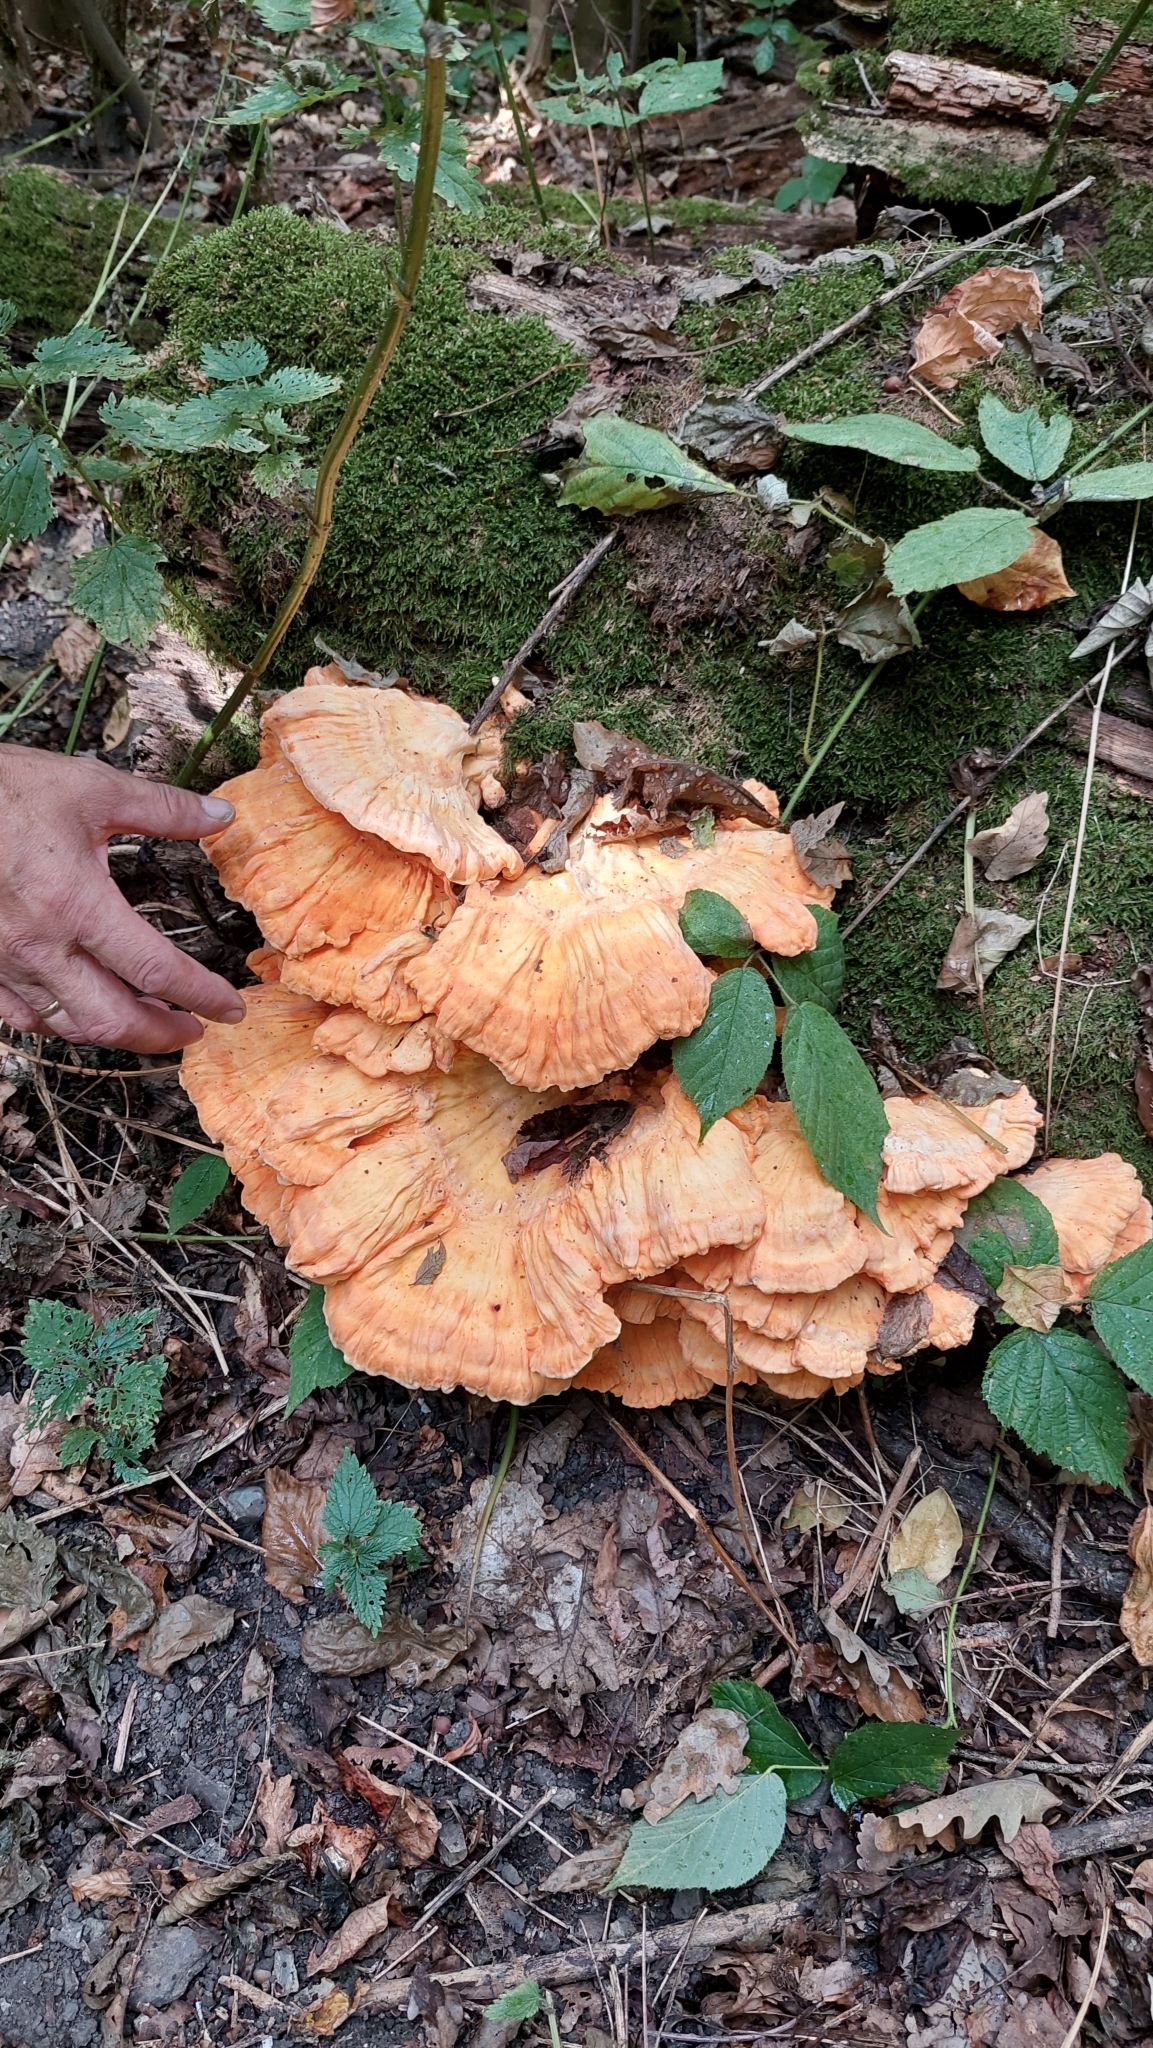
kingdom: Fungi
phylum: Basidiomycota
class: Agaricomycetes
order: Polyporales
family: Laetiporaceae
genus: Laetiporus
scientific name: Laetiporus sulphureus
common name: Chicken of the woods
